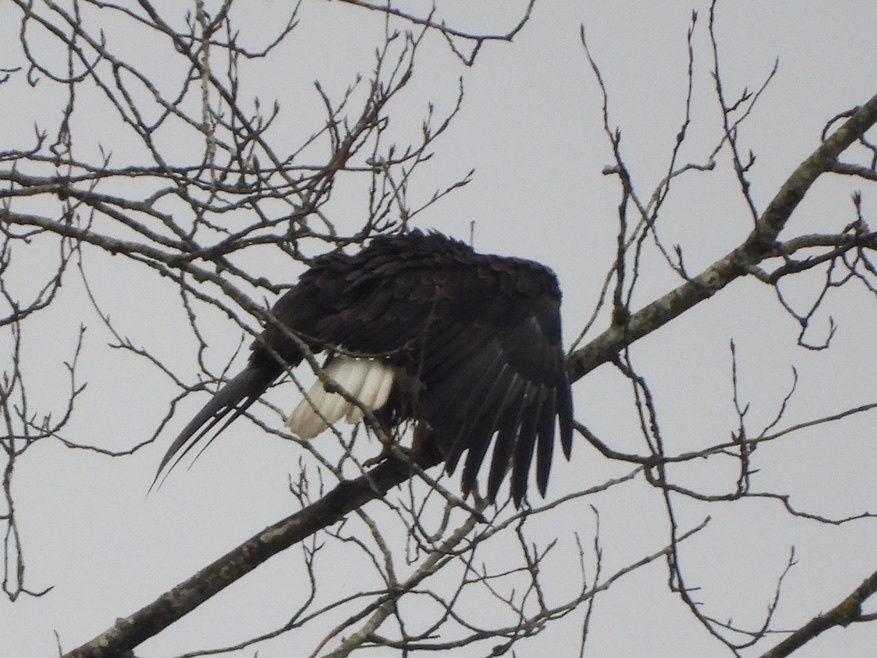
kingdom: Animalia
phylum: Chordata
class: Aves
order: Accipitriformes
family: Accipitridae
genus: Haliaeetus
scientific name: Haliaeetus leucocephalus
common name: Bald eagle
